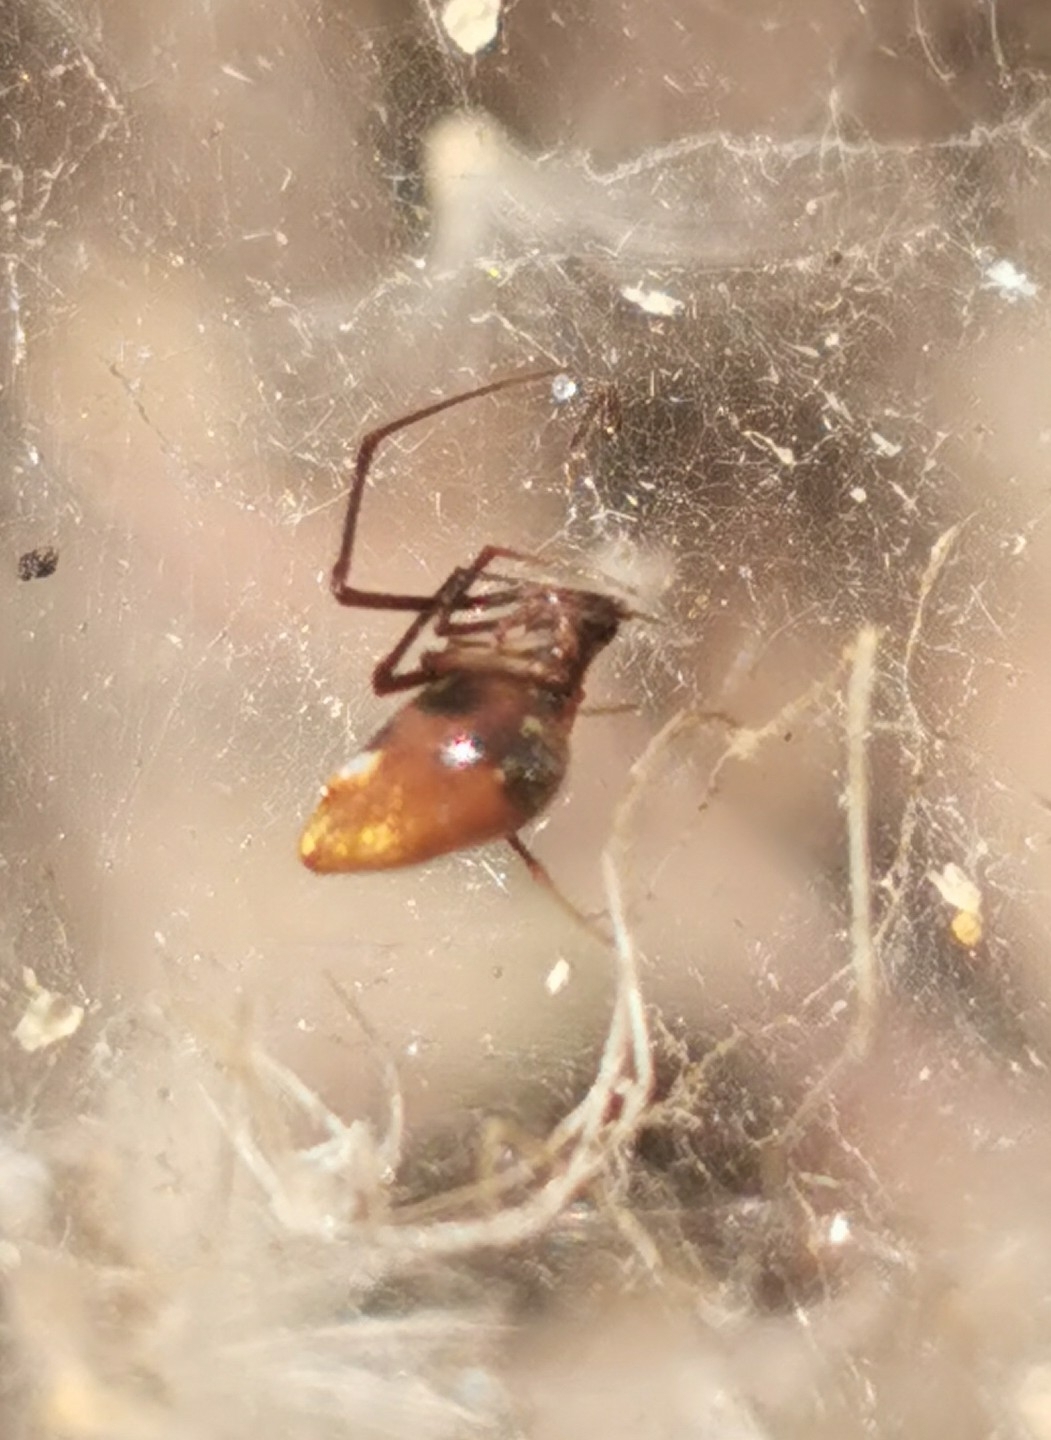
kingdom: Animalia
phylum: Arthropoda
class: Arachnida
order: Araneae
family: Theridiidae
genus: Argyrodes
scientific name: Argyrodes argyrodes
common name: Dewdrop spider
